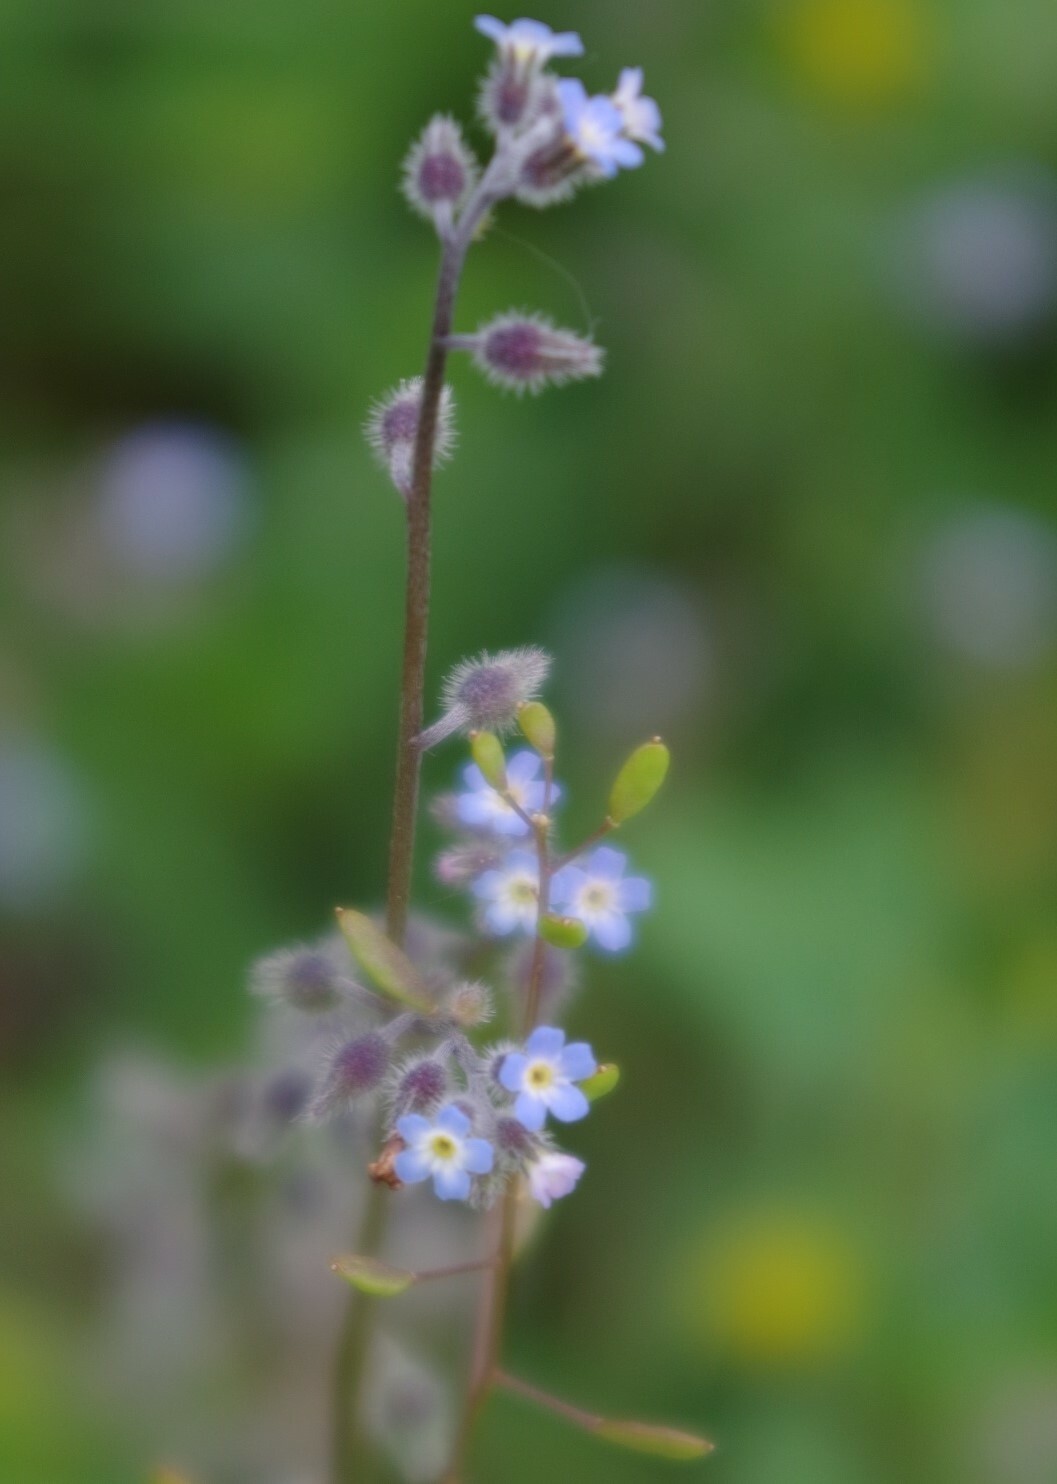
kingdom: Plantae
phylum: Tracheophyta
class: Magnoliopsida
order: Boraginales
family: Boraginaceae
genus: Myosotis
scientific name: Myosotis ramosissima
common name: Early forget-me-not
